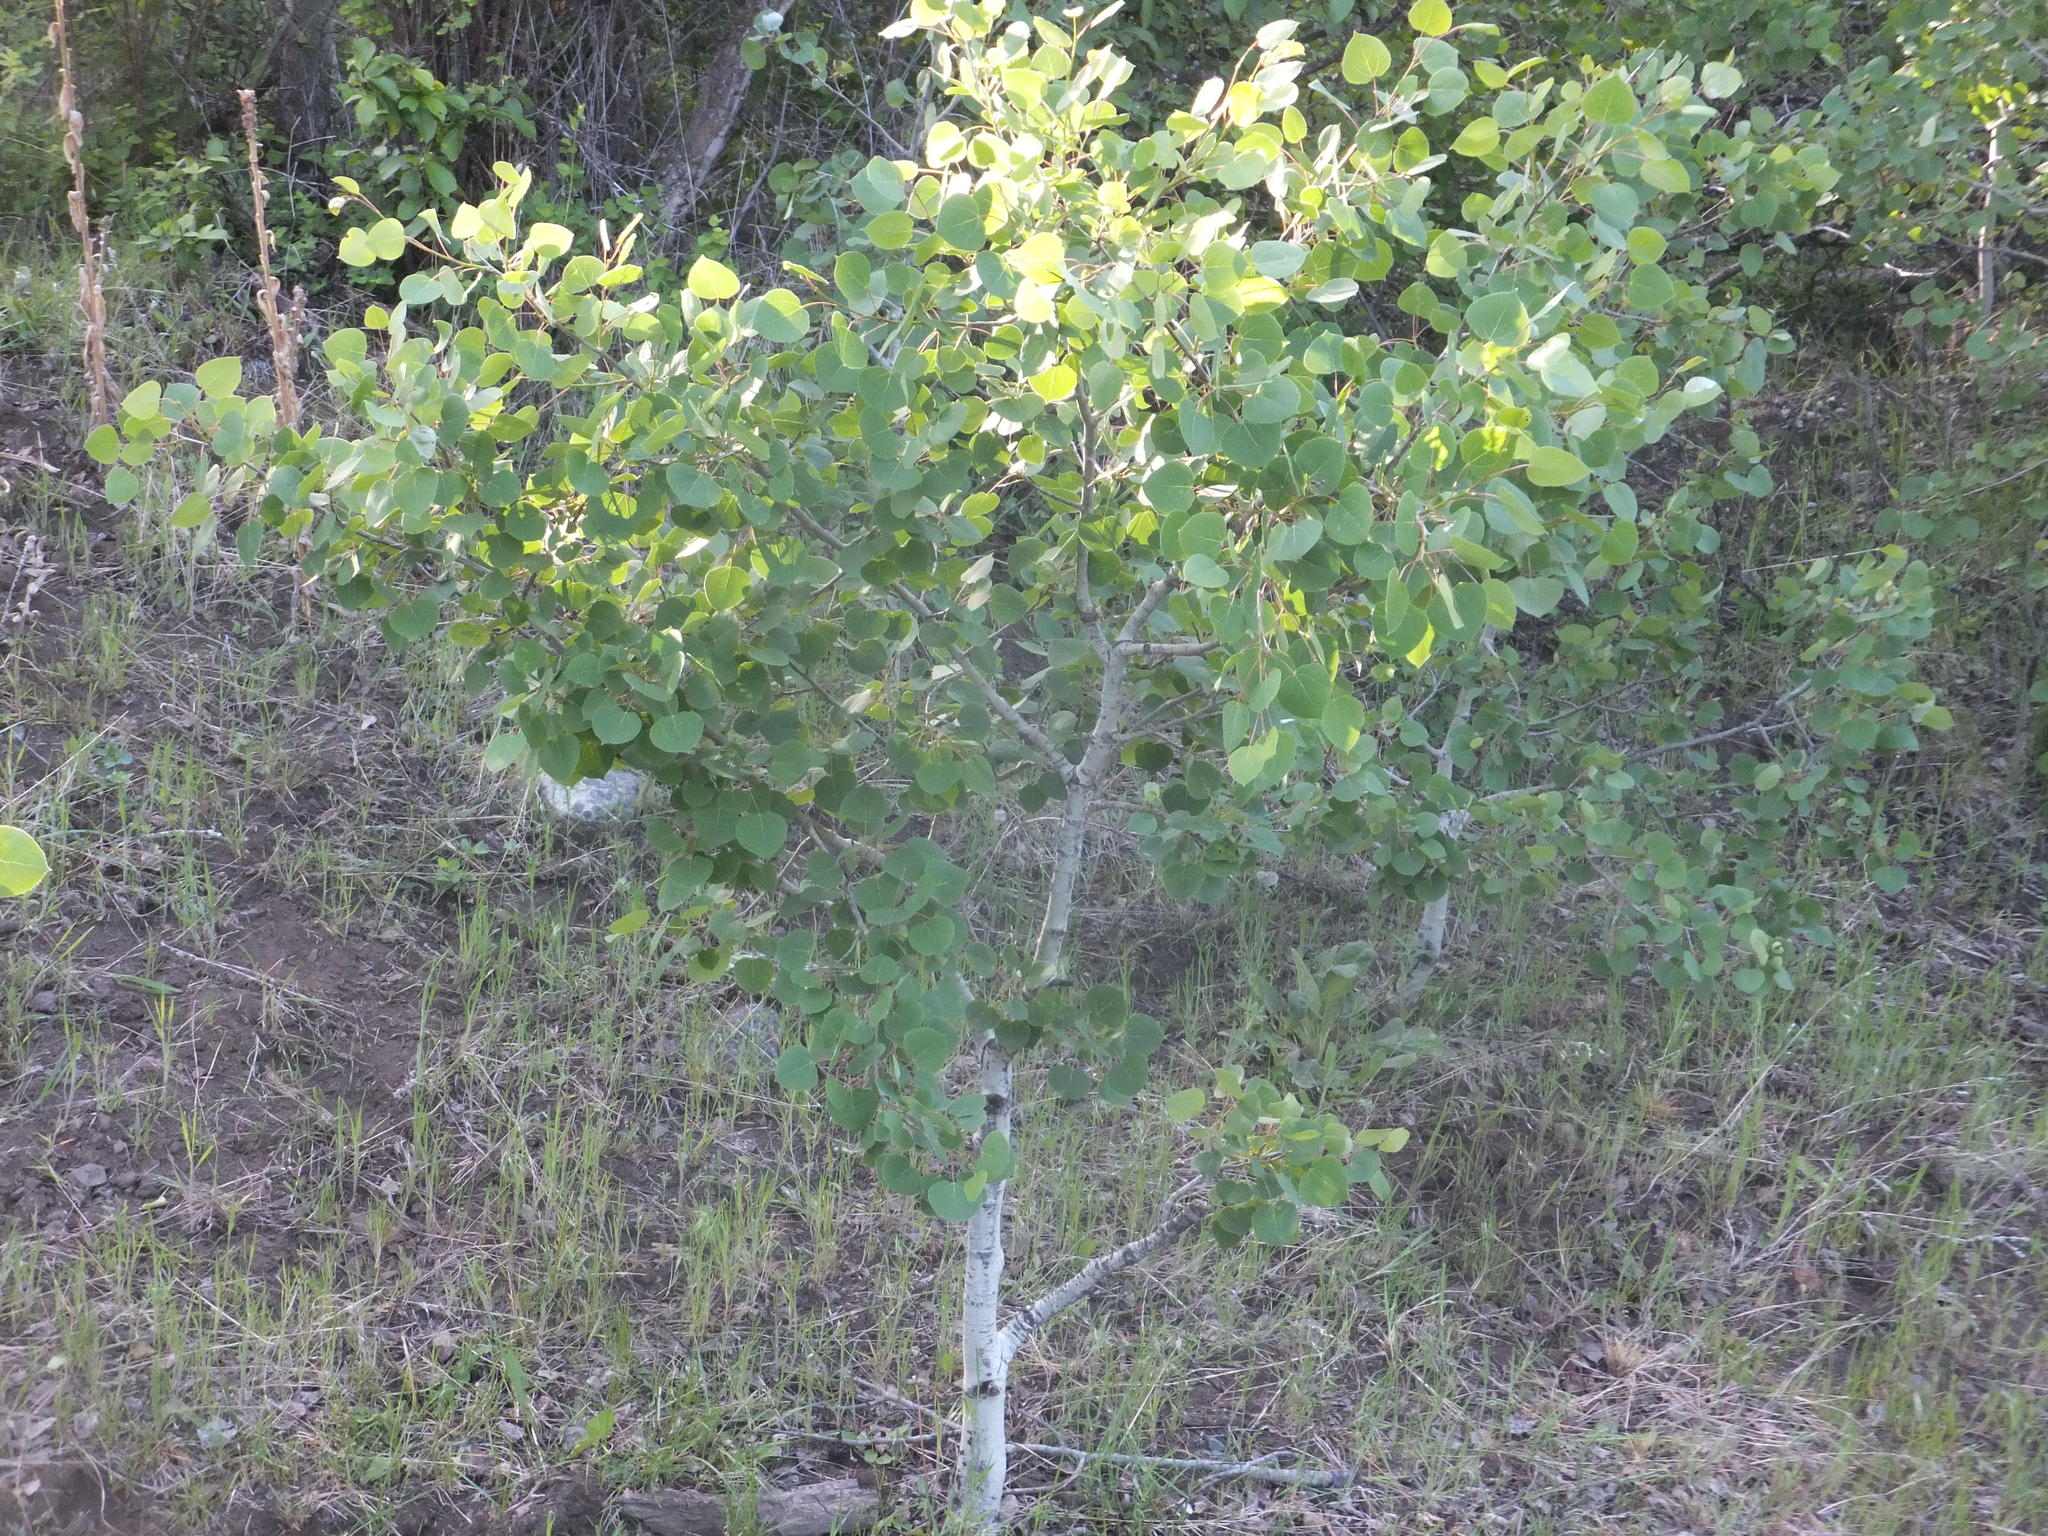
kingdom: Plantae
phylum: Tracheophyta
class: Magnoliopsida
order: Malpighiales
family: Salicaceae
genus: Populus
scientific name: Populus tremuloides
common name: Quaking aspen
